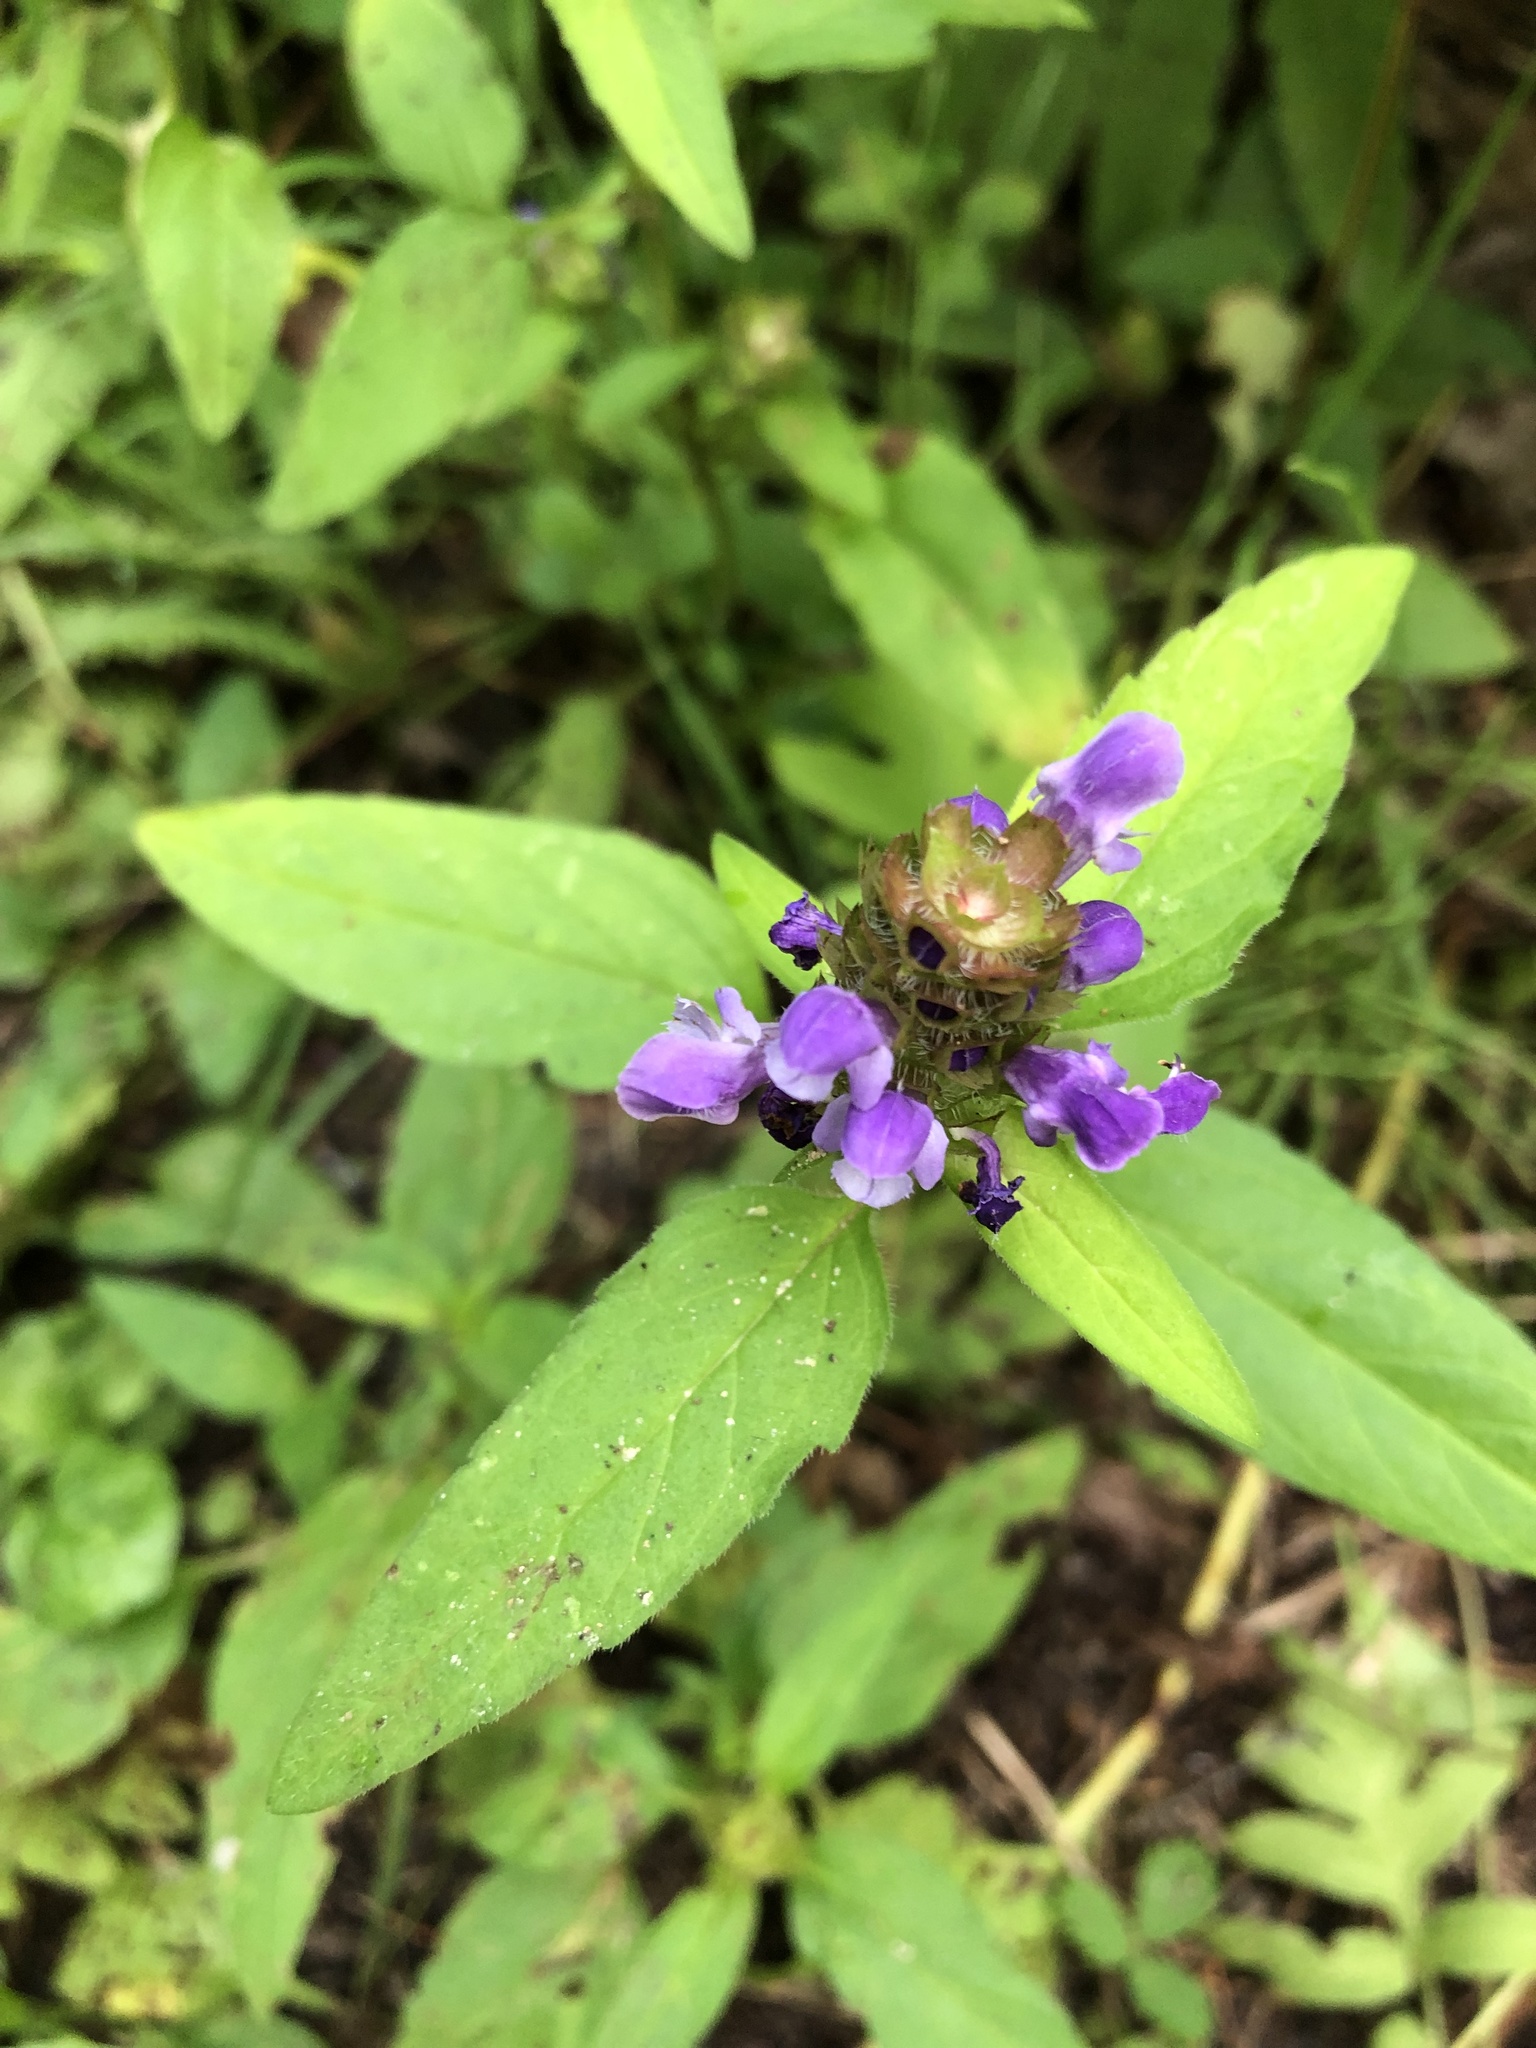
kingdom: Plantae
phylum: Tracheophyta
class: Magnoliopsida
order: Lamiales
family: Lamiaceae
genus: Prunella
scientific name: Prunella vulgaris
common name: Heal-all
